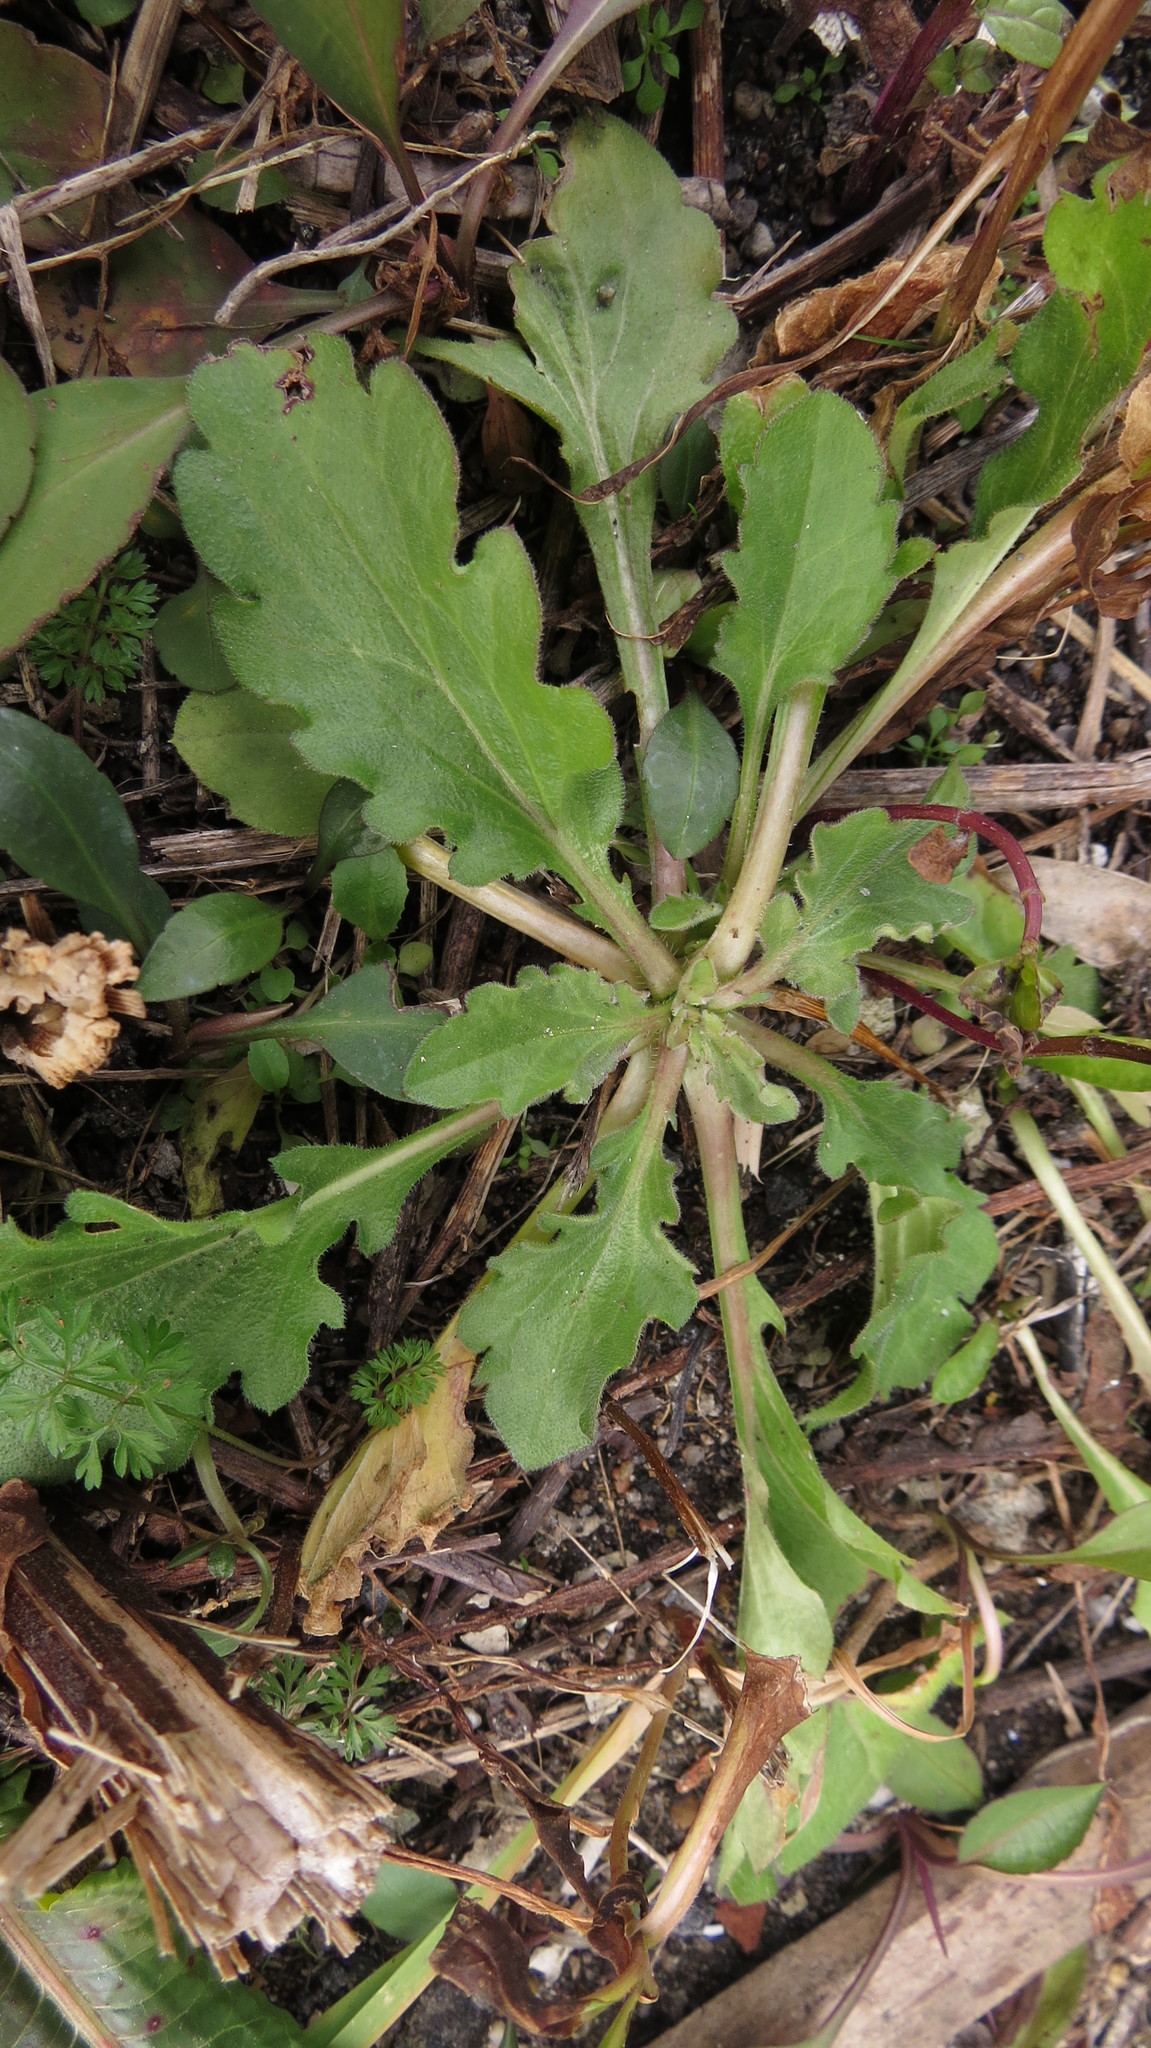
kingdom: Plantae
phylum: Tracheophyta
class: Magnoliopsida
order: Asterales
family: Asteraceae
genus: Leucanthemum
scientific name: Leucanthemum vulgare
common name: Oxeye daisy
